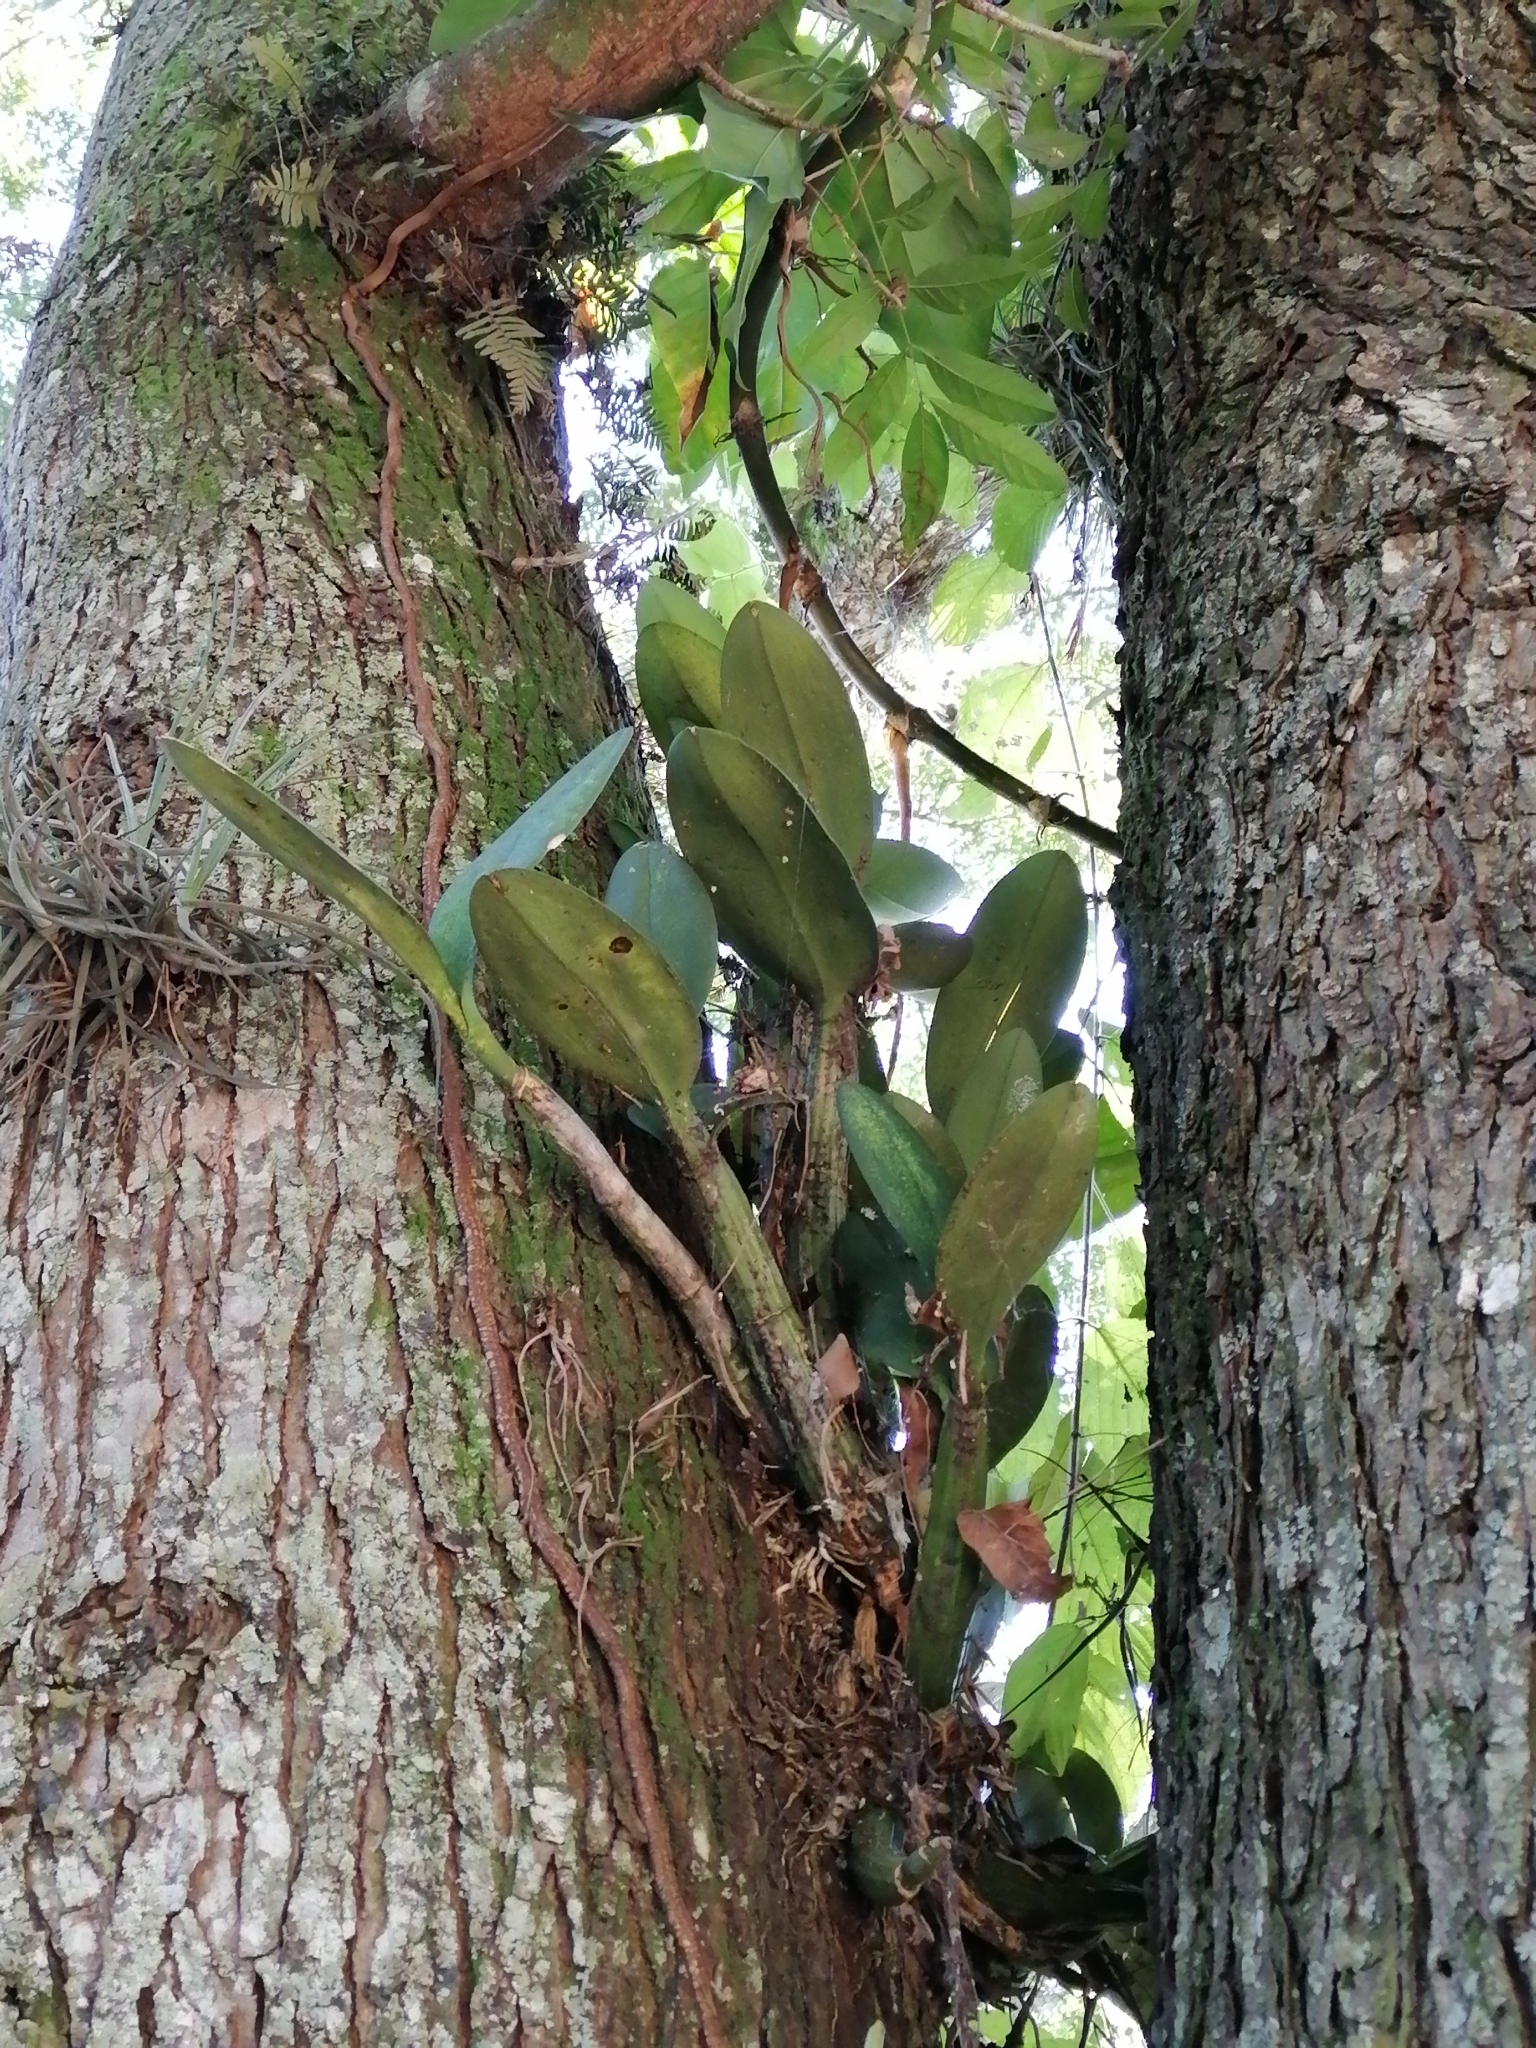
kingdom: Plantae
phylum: Tracheophyta
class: Liliopsida
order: Asparagales
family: Orchidaceae
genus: Myrmecophila
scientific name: Myrmecophila grandiflora
